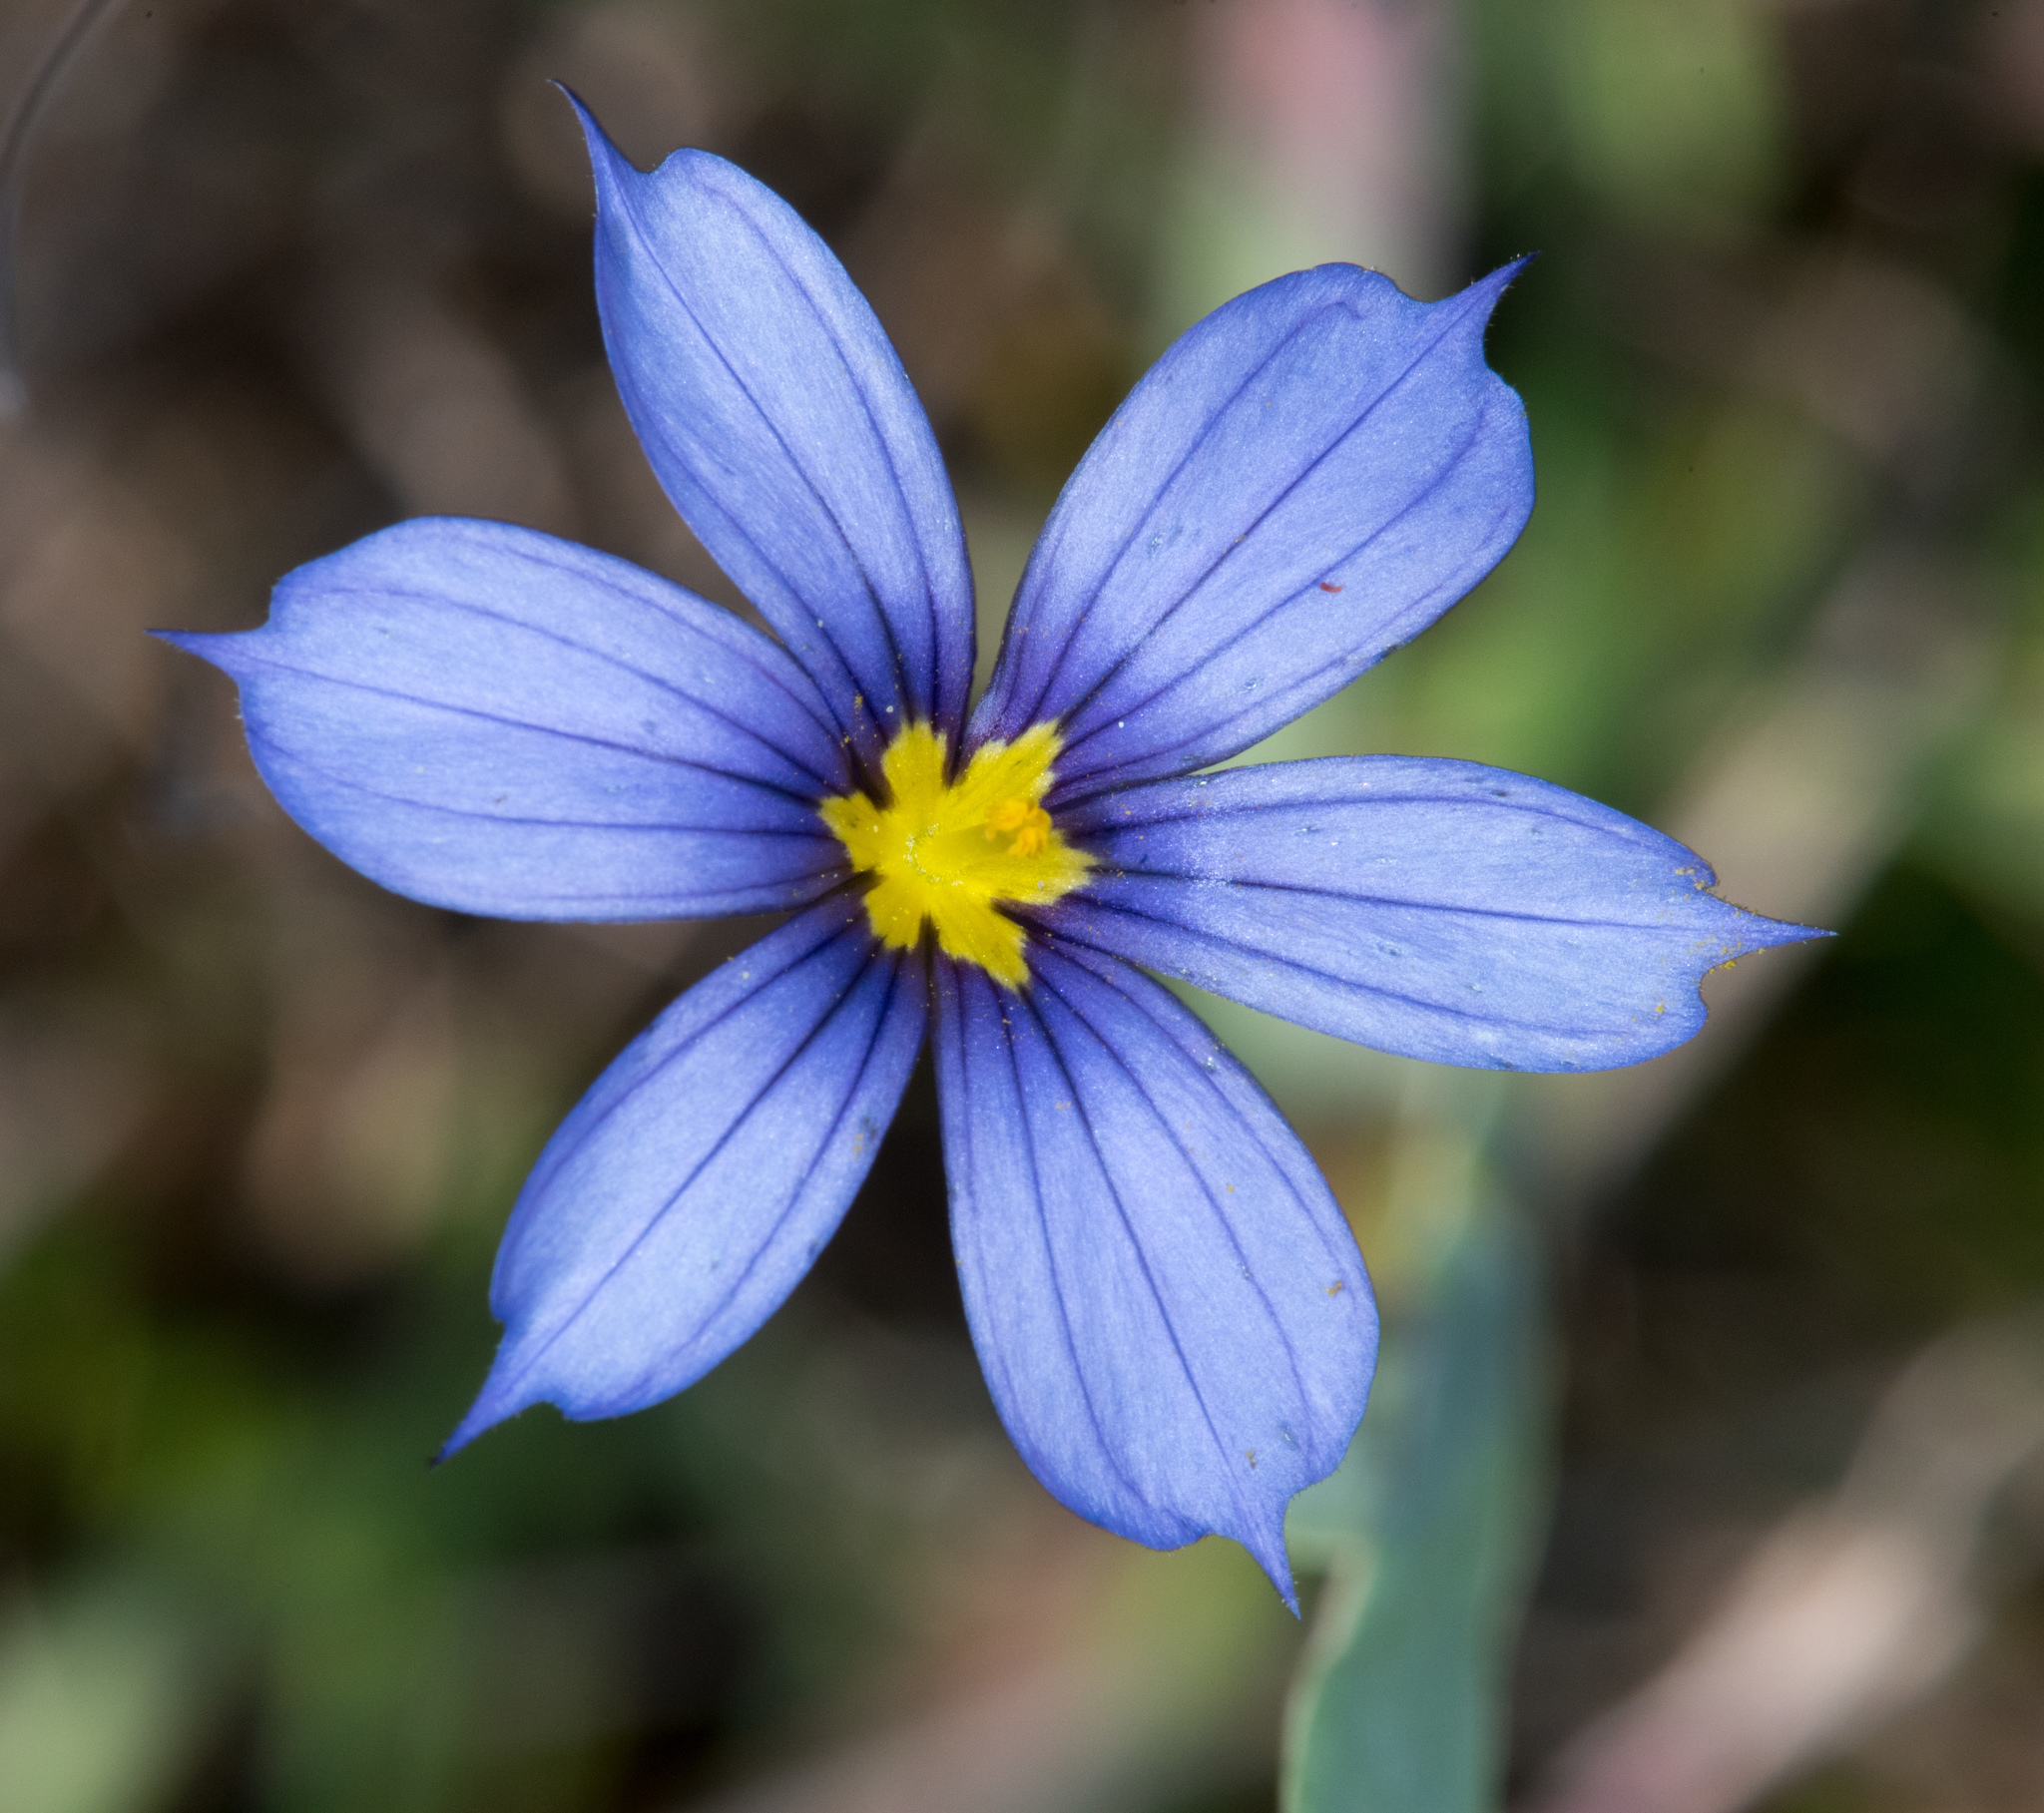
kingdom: Plantae
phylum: Tracheophyta
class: Liliopsida
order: Asparagales
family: Iridaceae
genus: Sisyrinchium
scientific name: Sisyrinchium bellum
